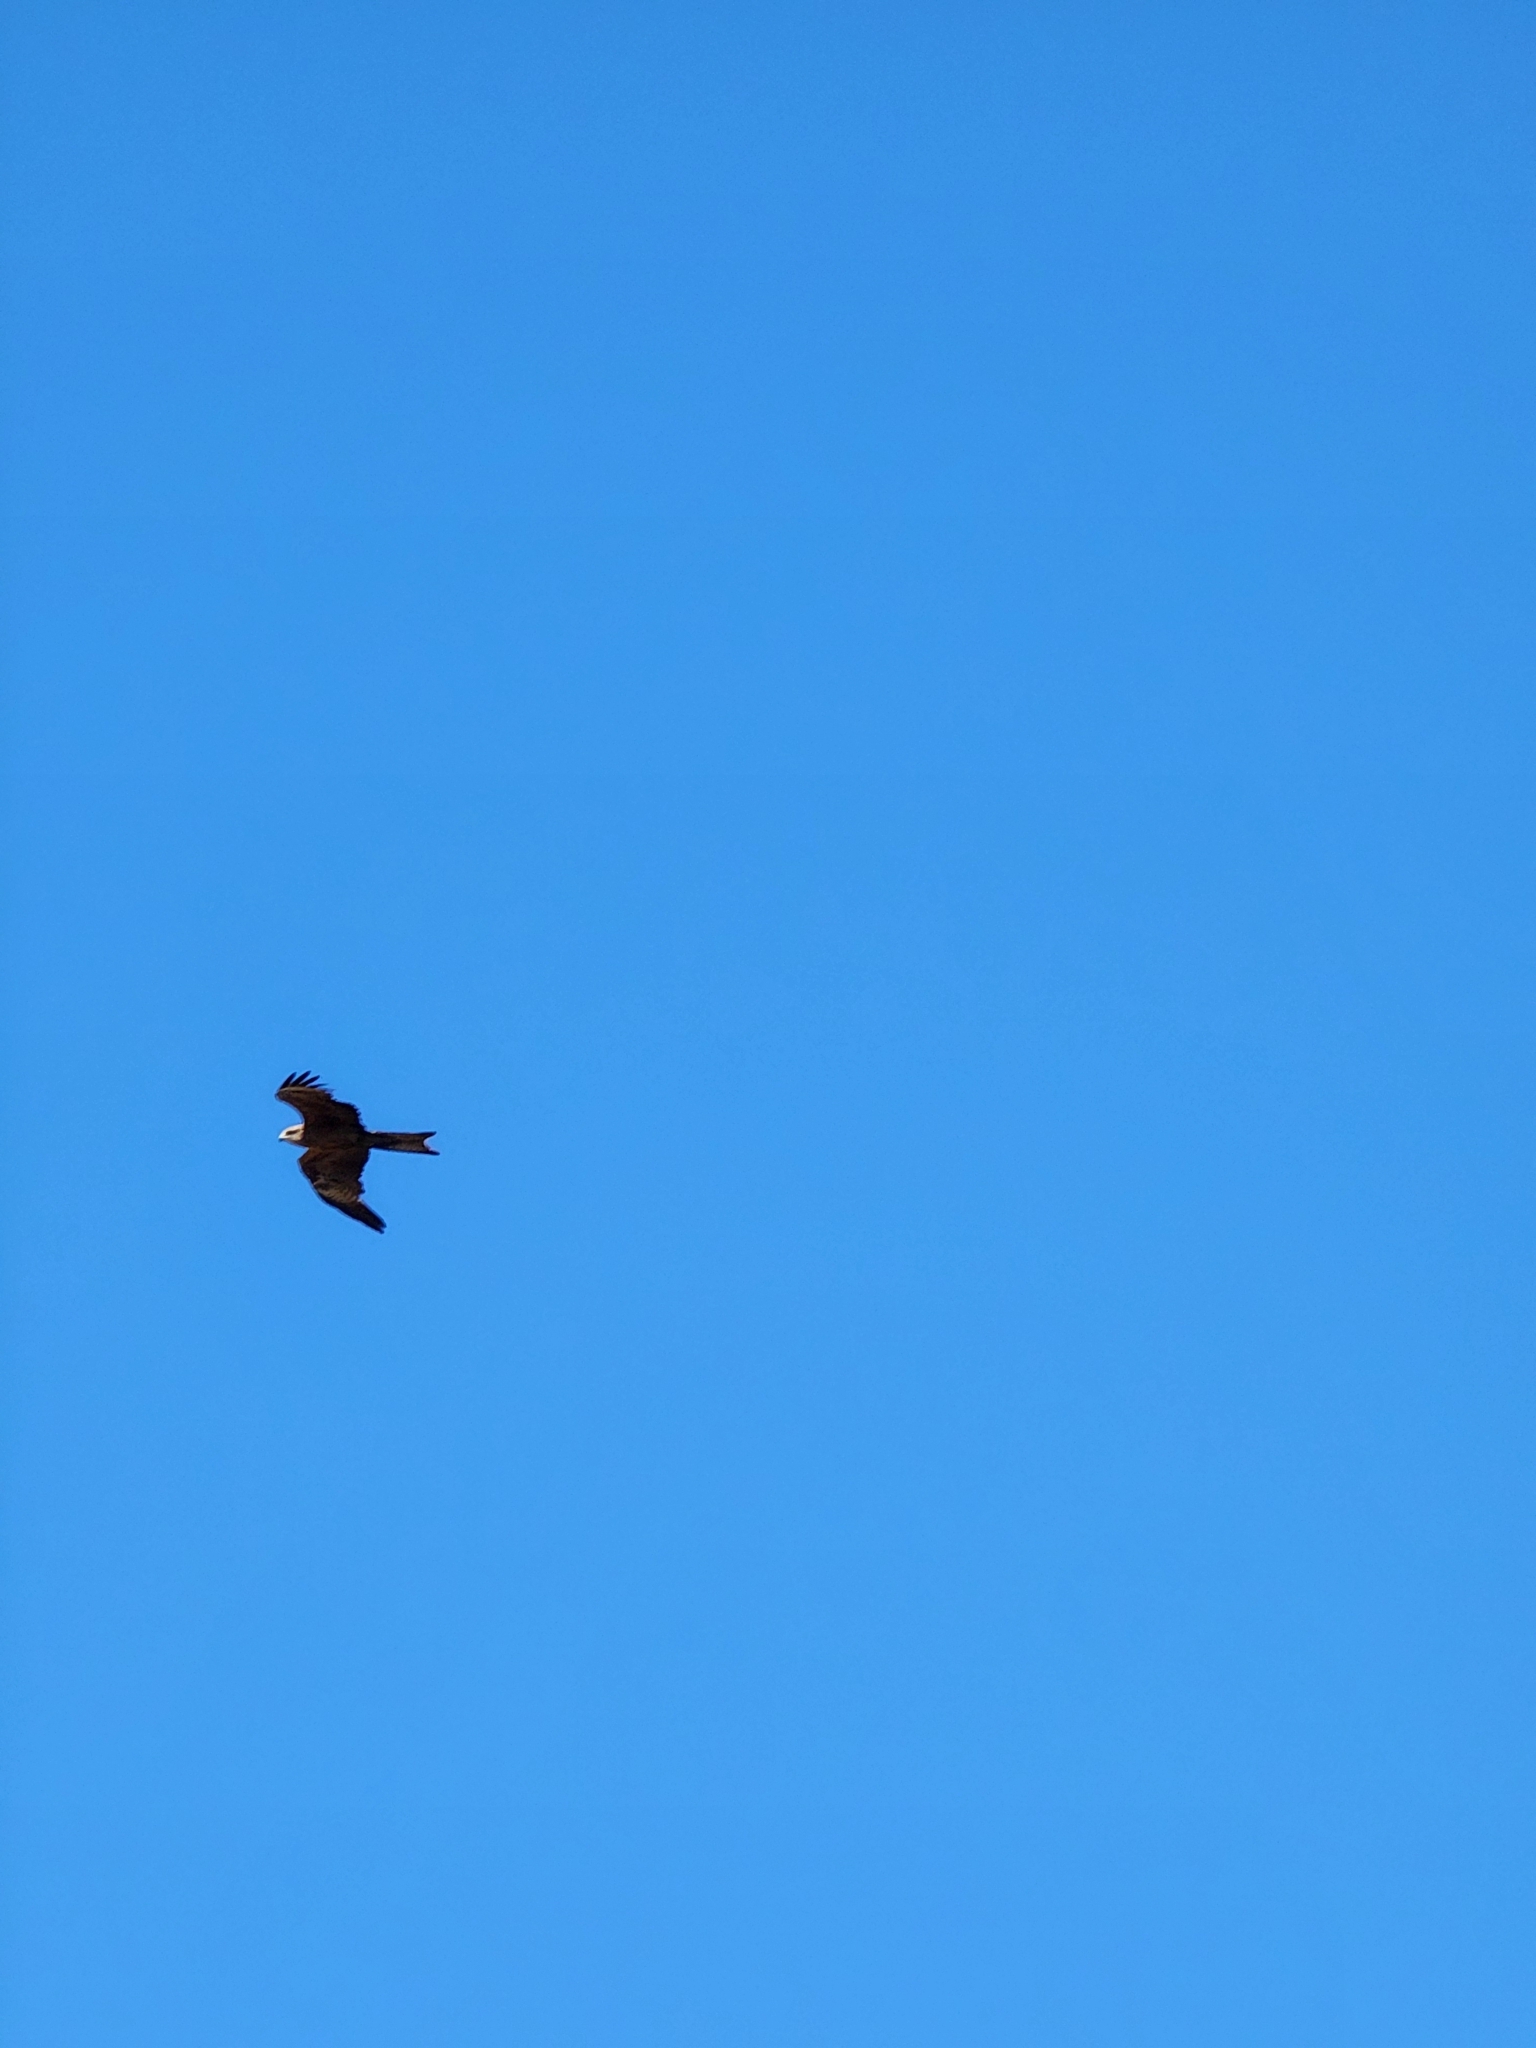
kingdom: Animalia
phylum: Chordata
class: Aves
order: Accipitriformes
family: Accipitridae
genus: Milvus
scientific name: Milvus migrans
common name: Black kite
